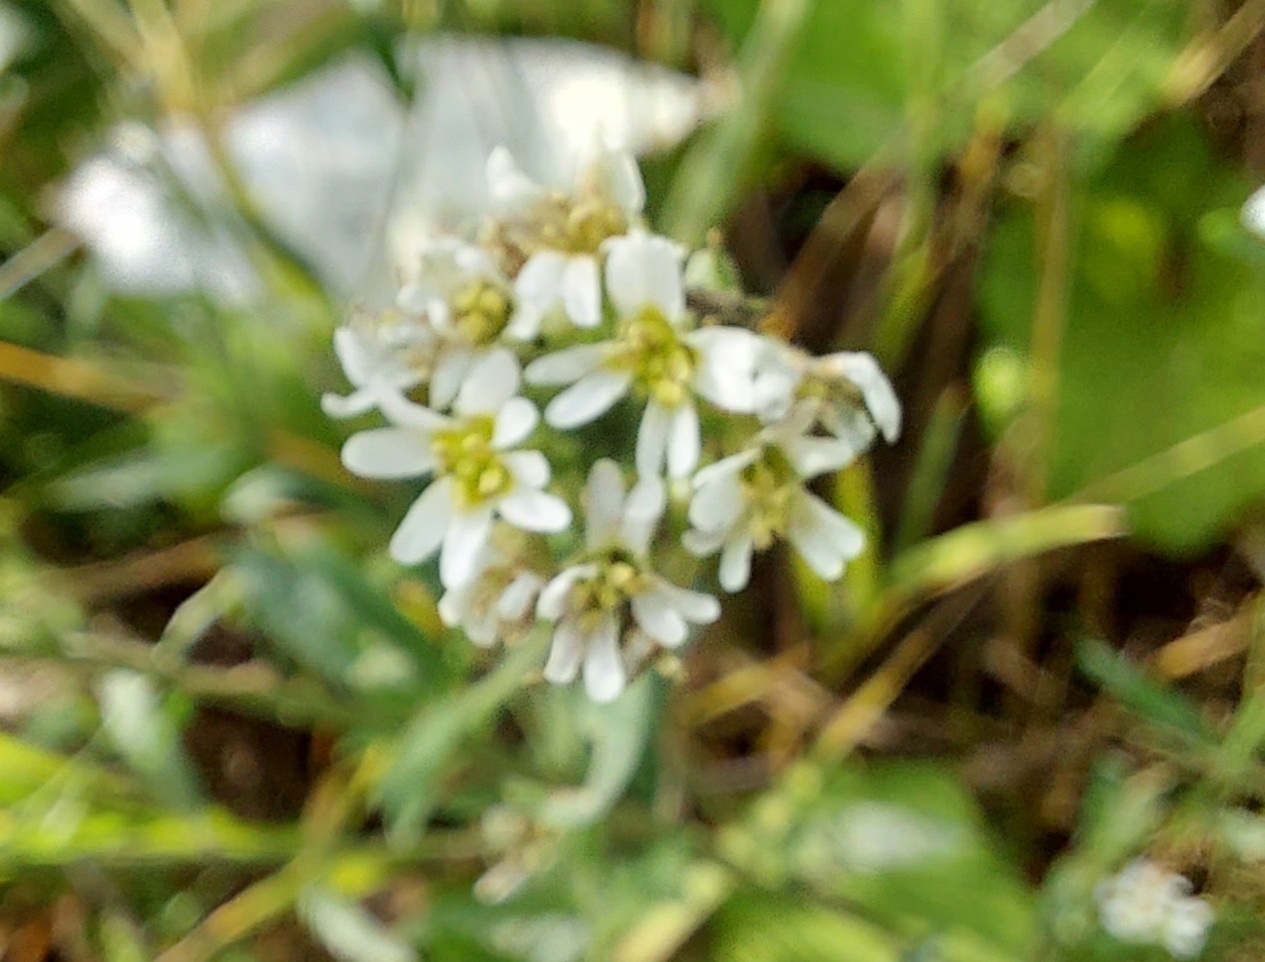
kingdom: Plantae
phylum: Tracheophyta
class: Magnoliopsida
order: Brassicales
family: Brassicaceae
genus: Berteroa
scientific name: Berteroa incana
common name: Hoary alison
